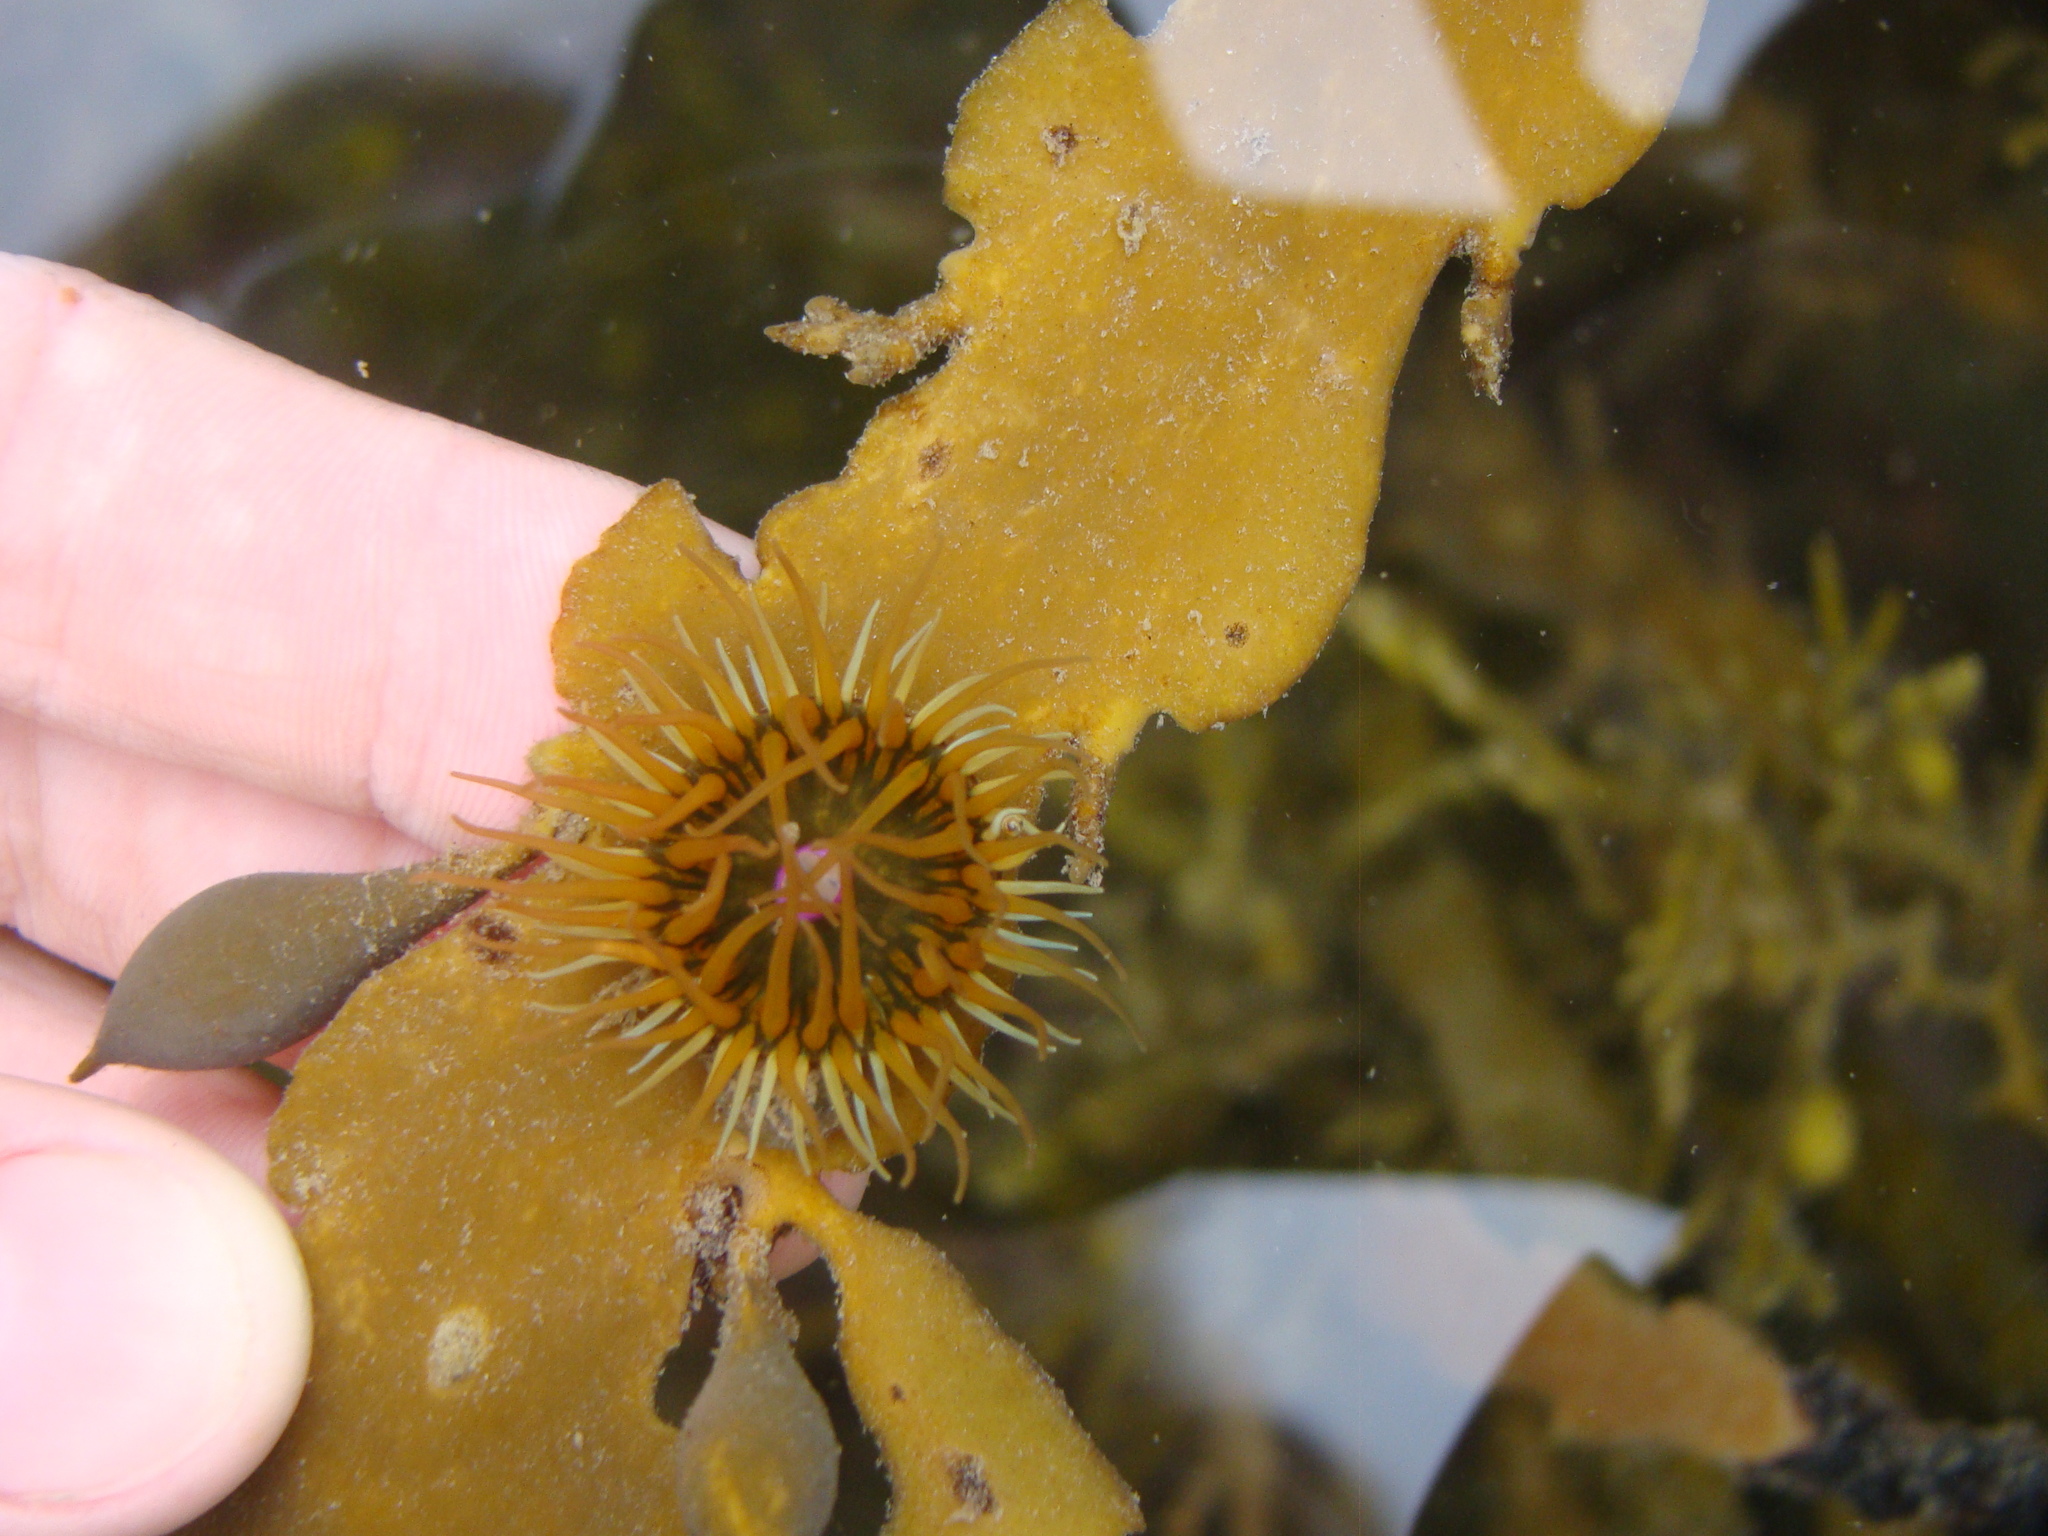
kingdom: Animalia
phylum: Cnidaria
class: Anthozoa
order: Actiniaria
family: Hormathiidae
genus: Handactis
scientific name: Handactis nutrix
